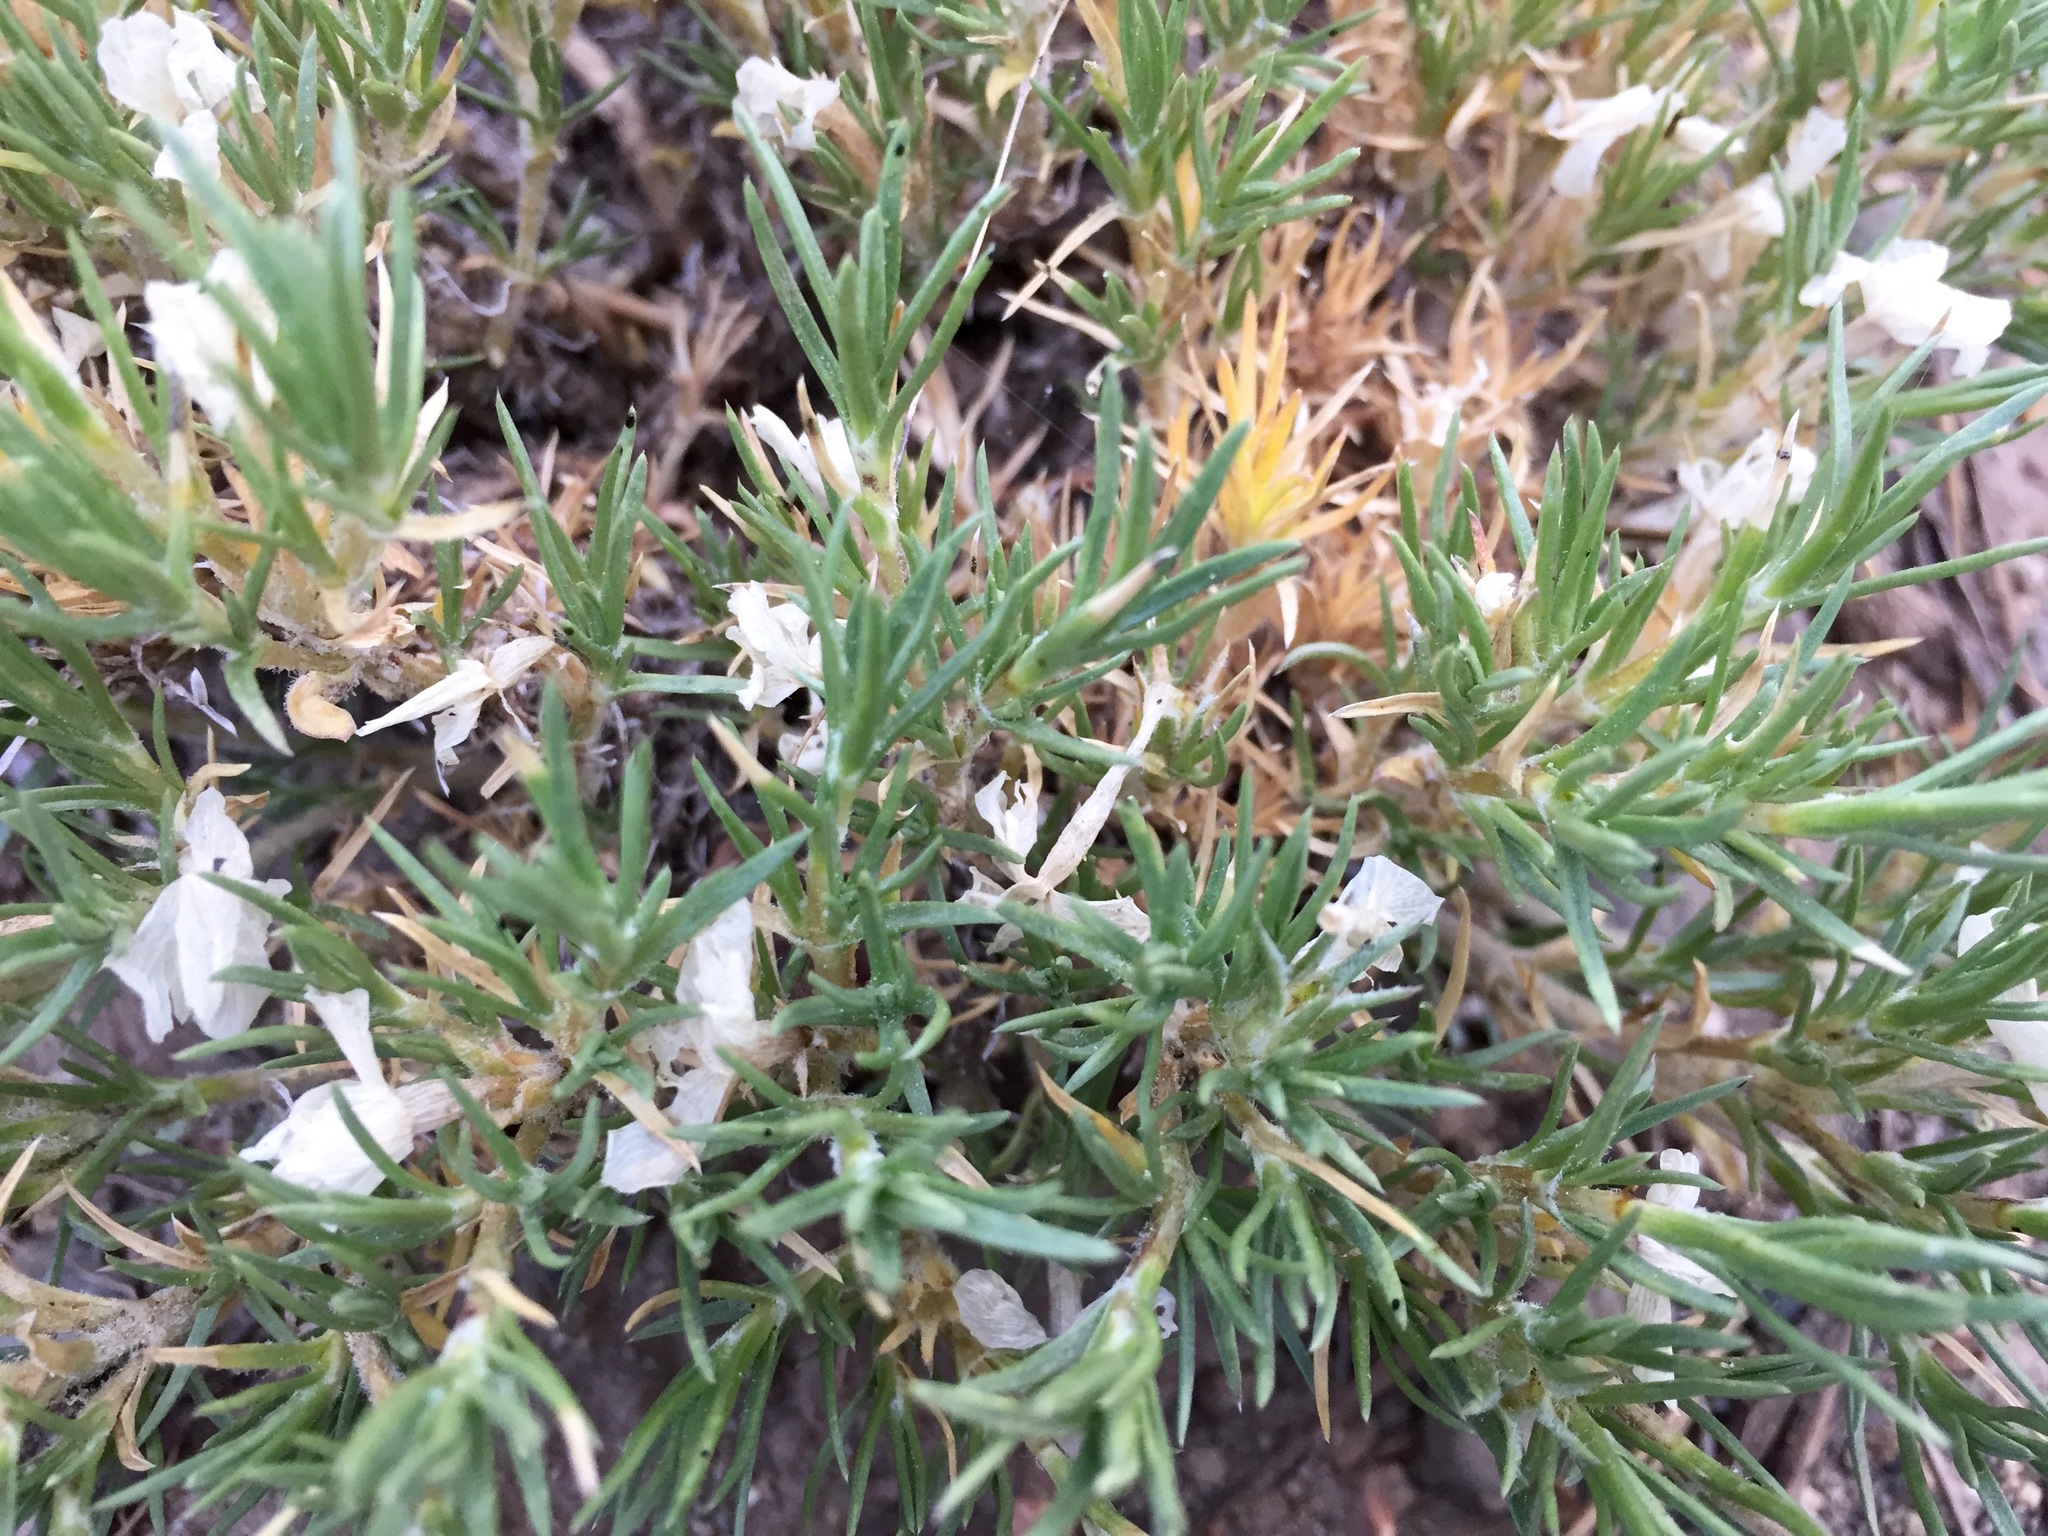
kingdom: Plantae
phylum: Tracheophyta
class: Magnoliopsida
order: Ericales
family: Polemoniaceae
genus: Phlox
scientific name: Phlox diffusa
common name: Mat phlox
